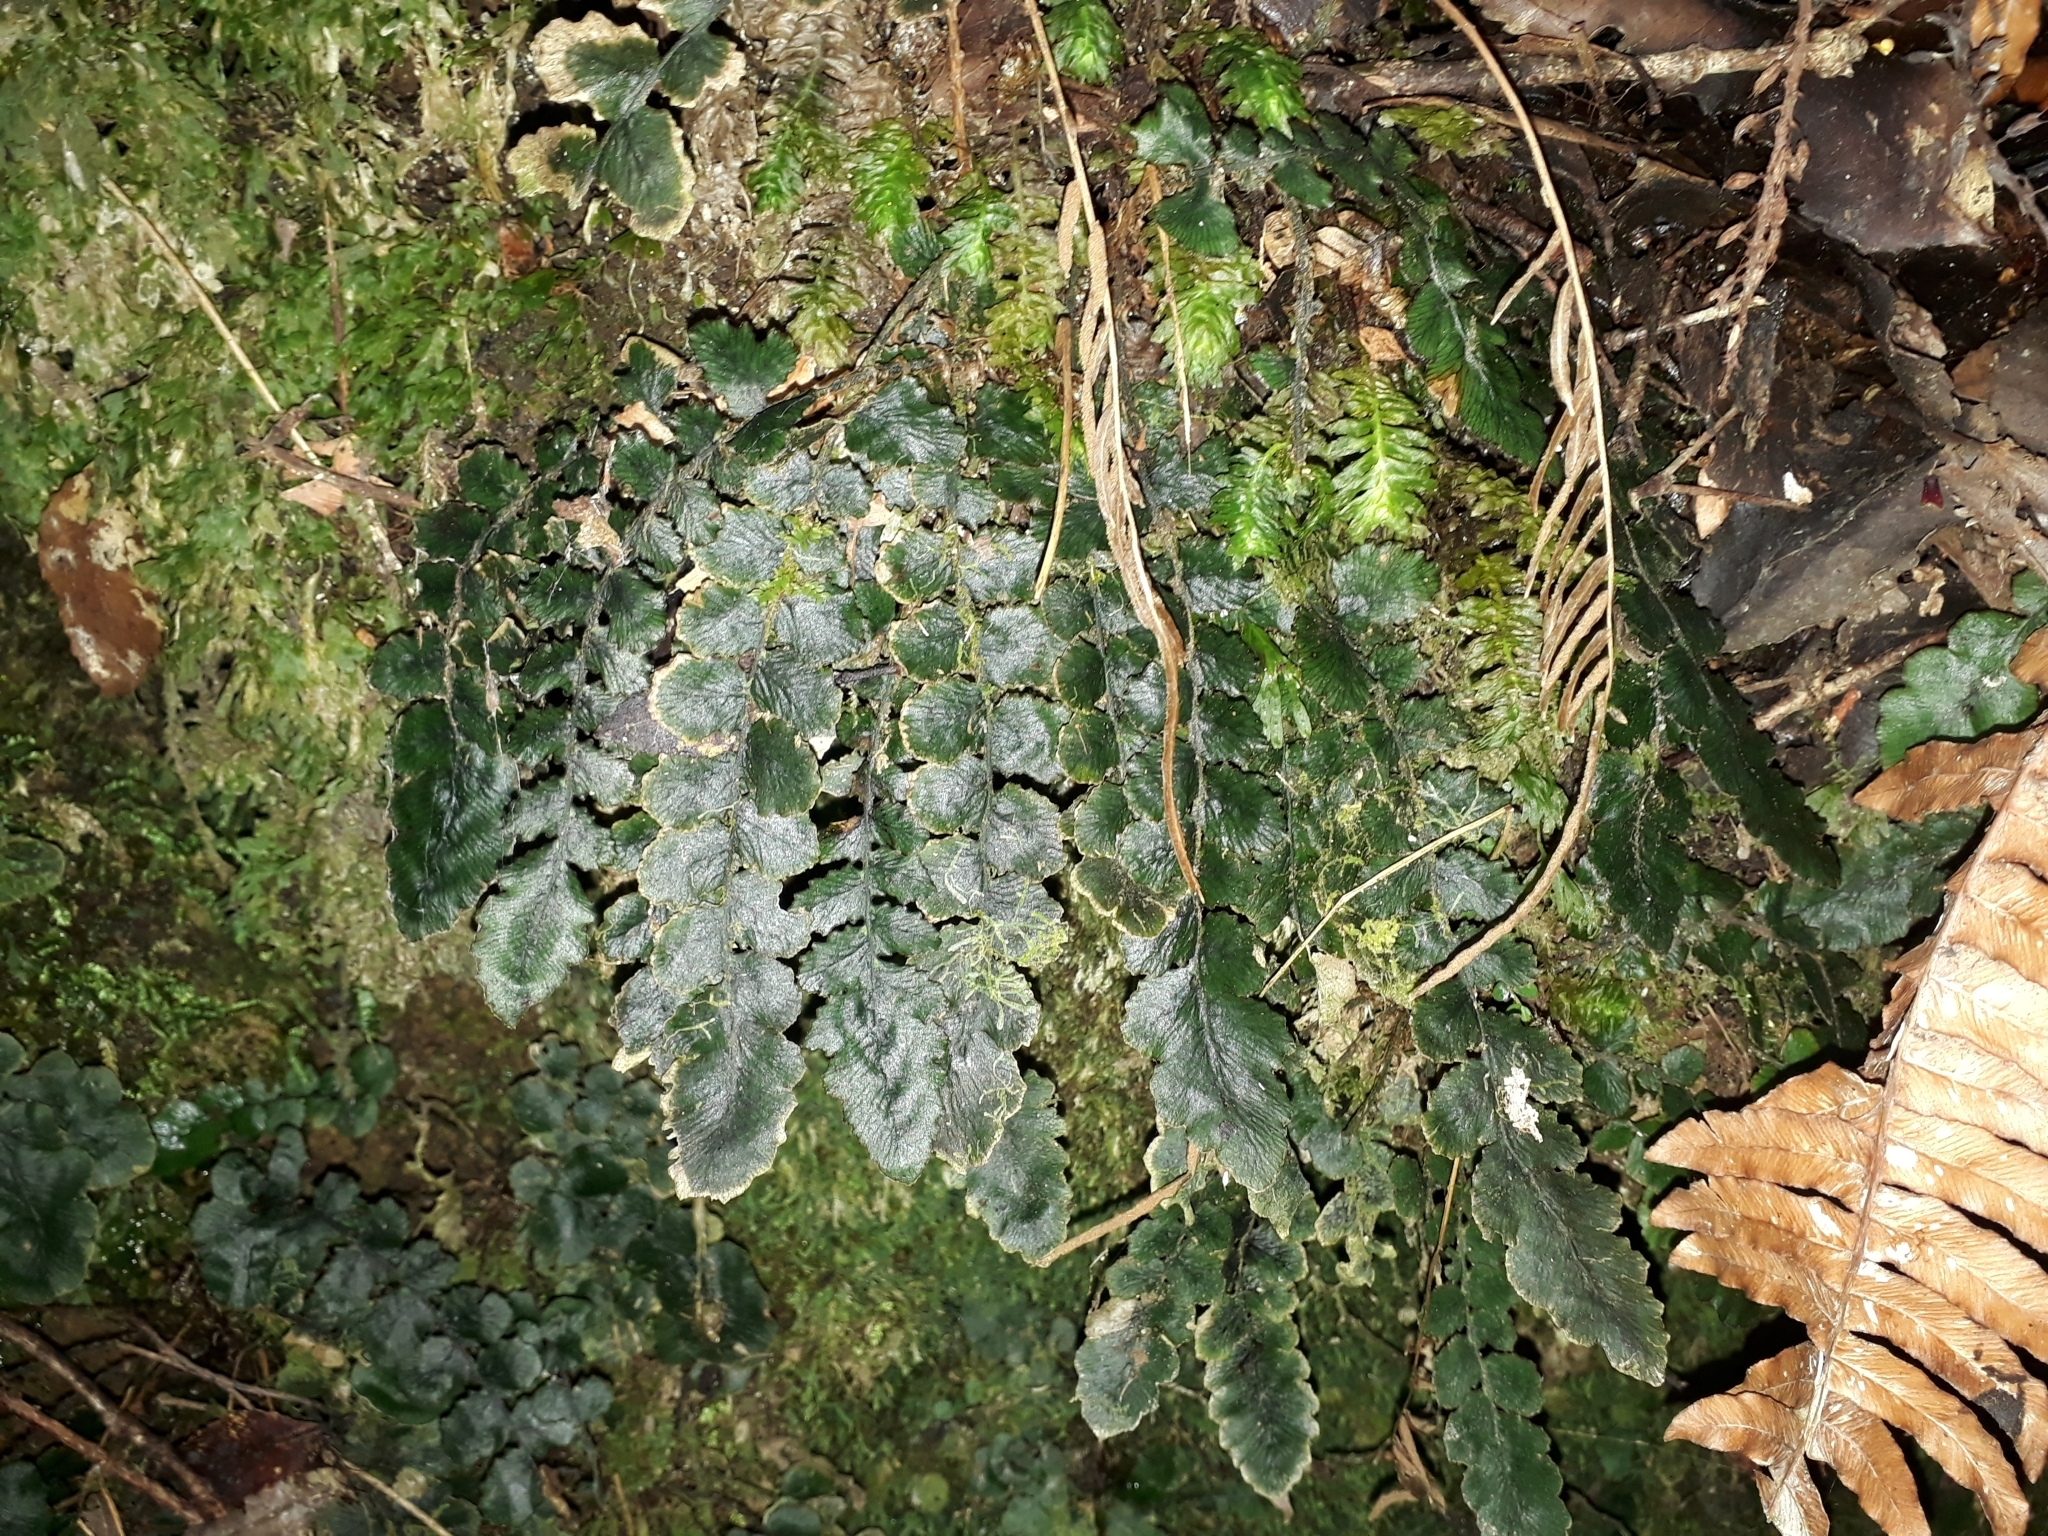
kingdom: Plantae
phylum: Tracheophyta
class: Polypodiopsida
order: Polypodiales
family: Blechnaceae
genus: Cranfillia
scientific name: Cranfillia nigra
